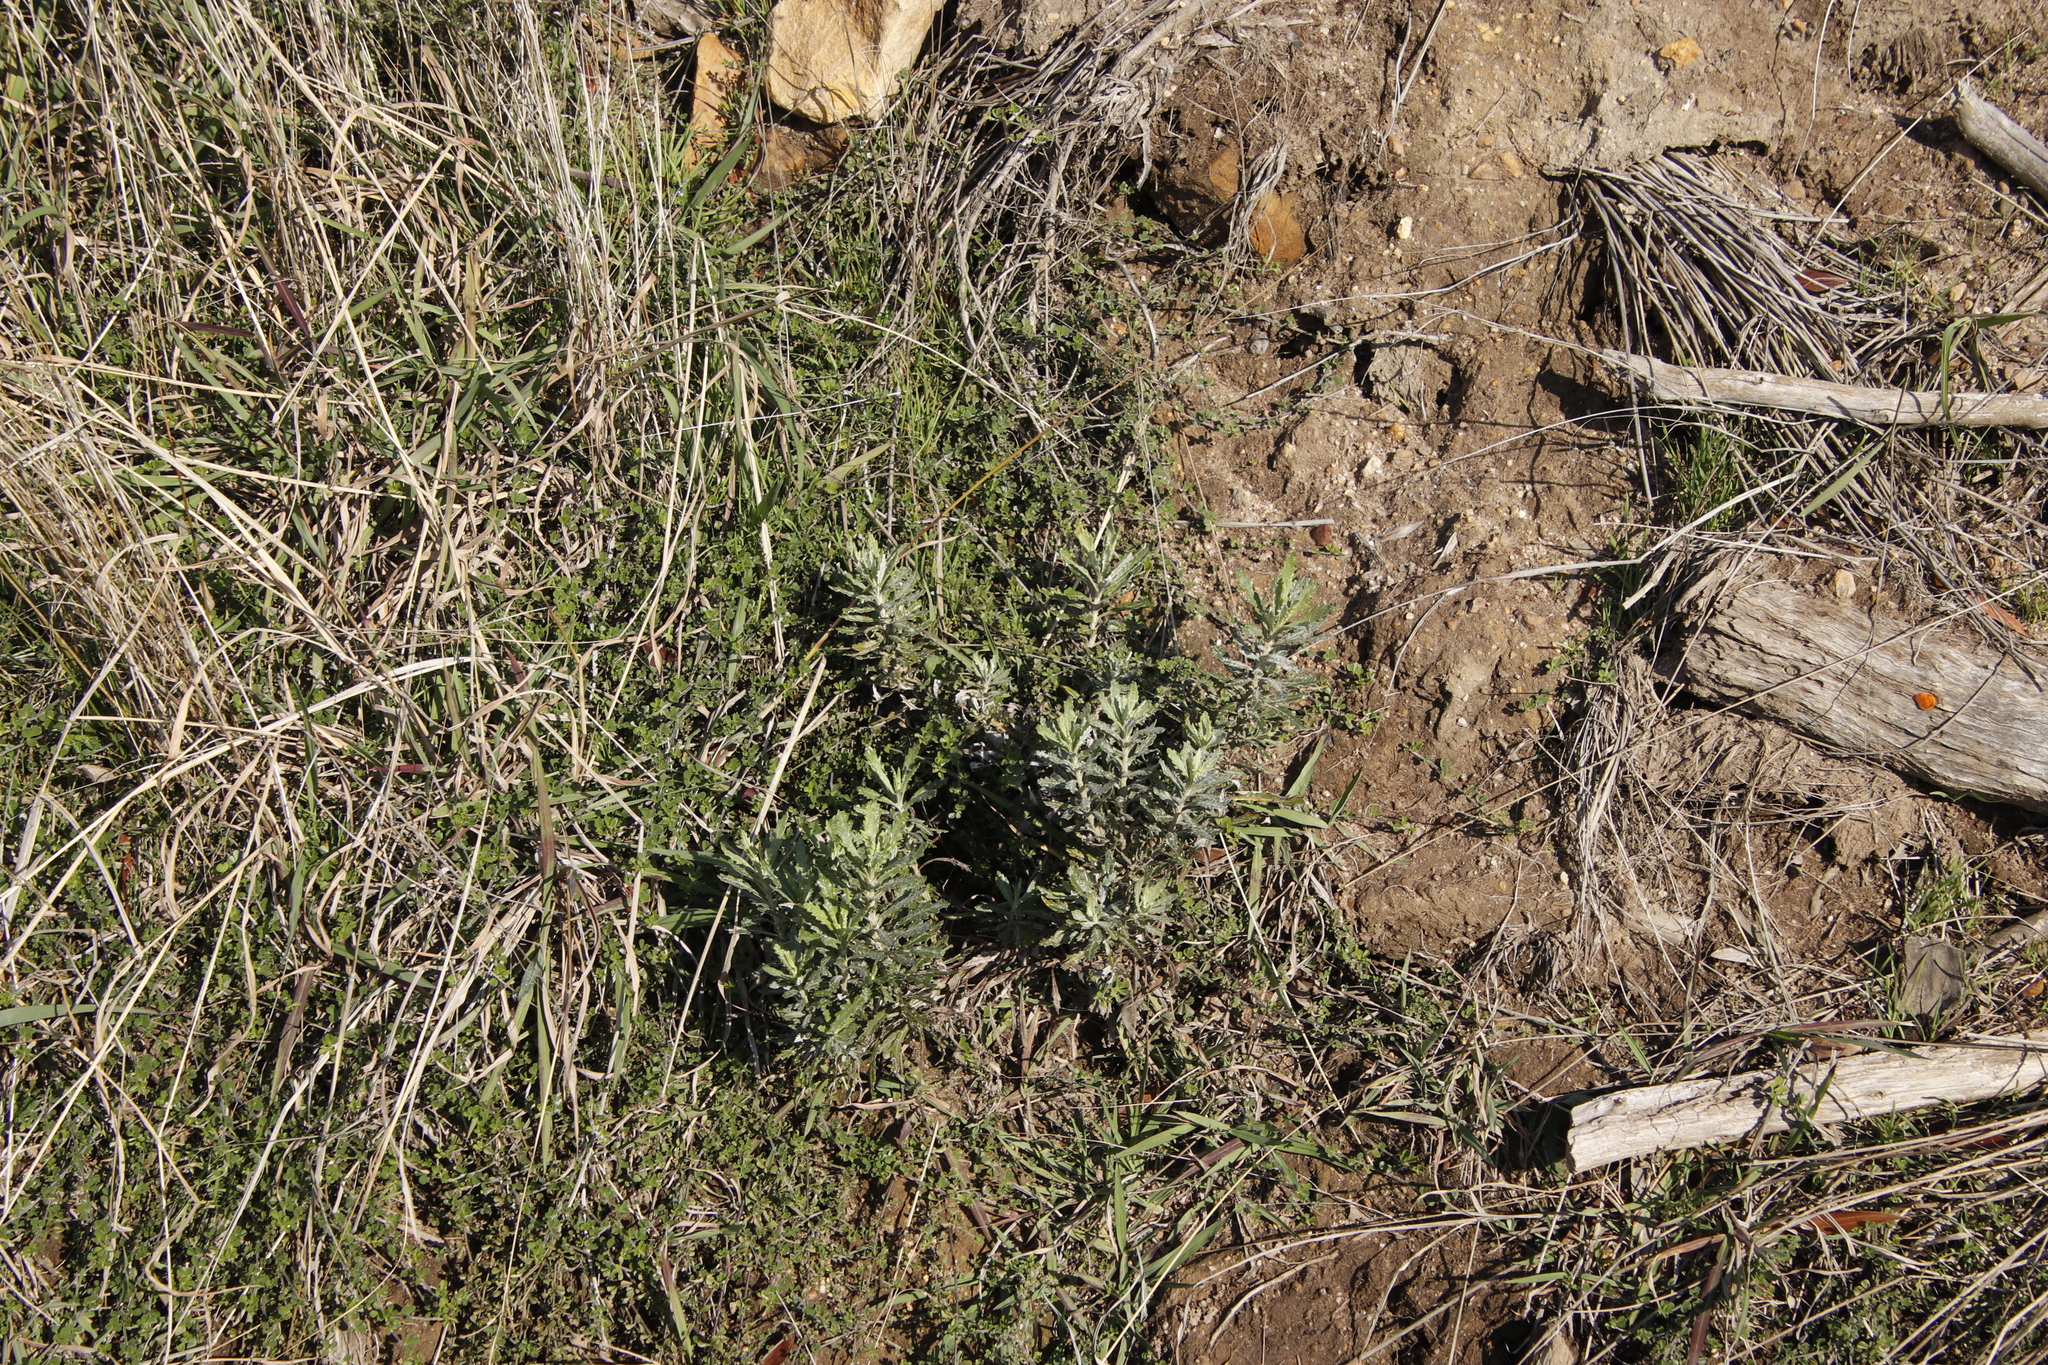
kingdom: Plantae
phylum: Tracheophyta
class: Magnoliopsida
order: Asterales
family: Asteraceae
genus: Senecio
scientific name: Senecio pterophorus
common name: Shoddy ragwort
